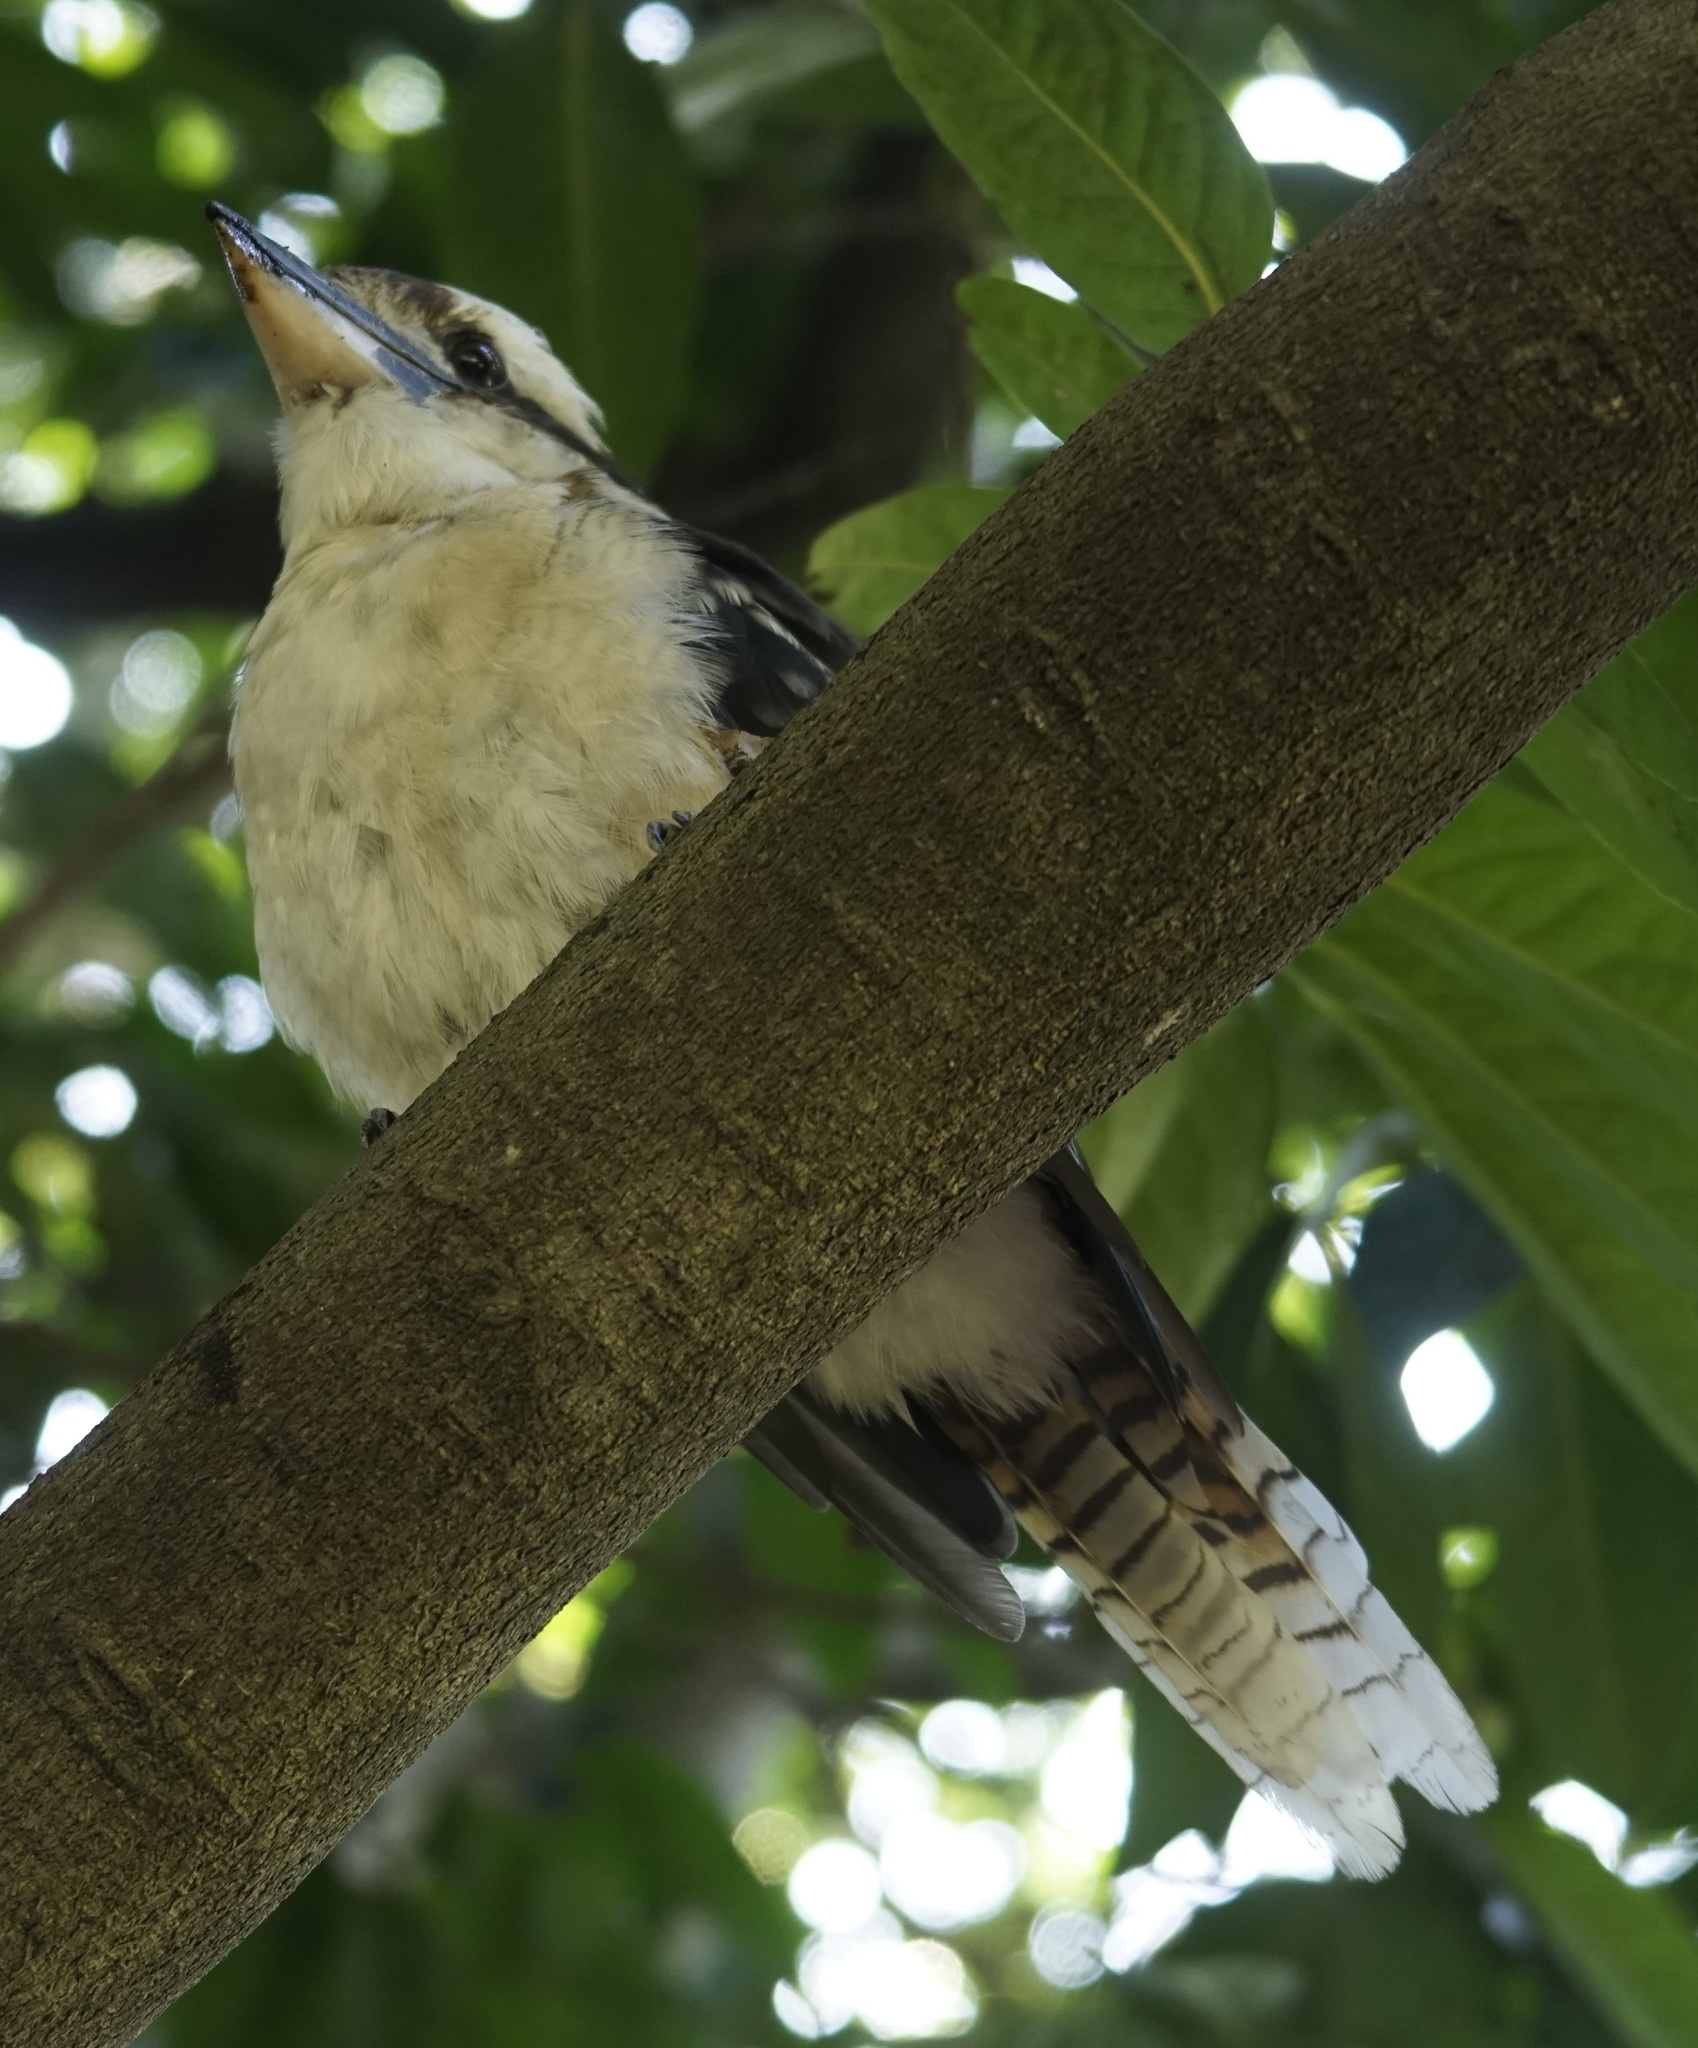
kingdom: Animalia
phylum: Chordata
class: Aves
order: Coraciiformes
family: Alcedinidae
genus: Dacelo
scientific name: Dacelo novaeguineae
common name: Laughing kookaburra
